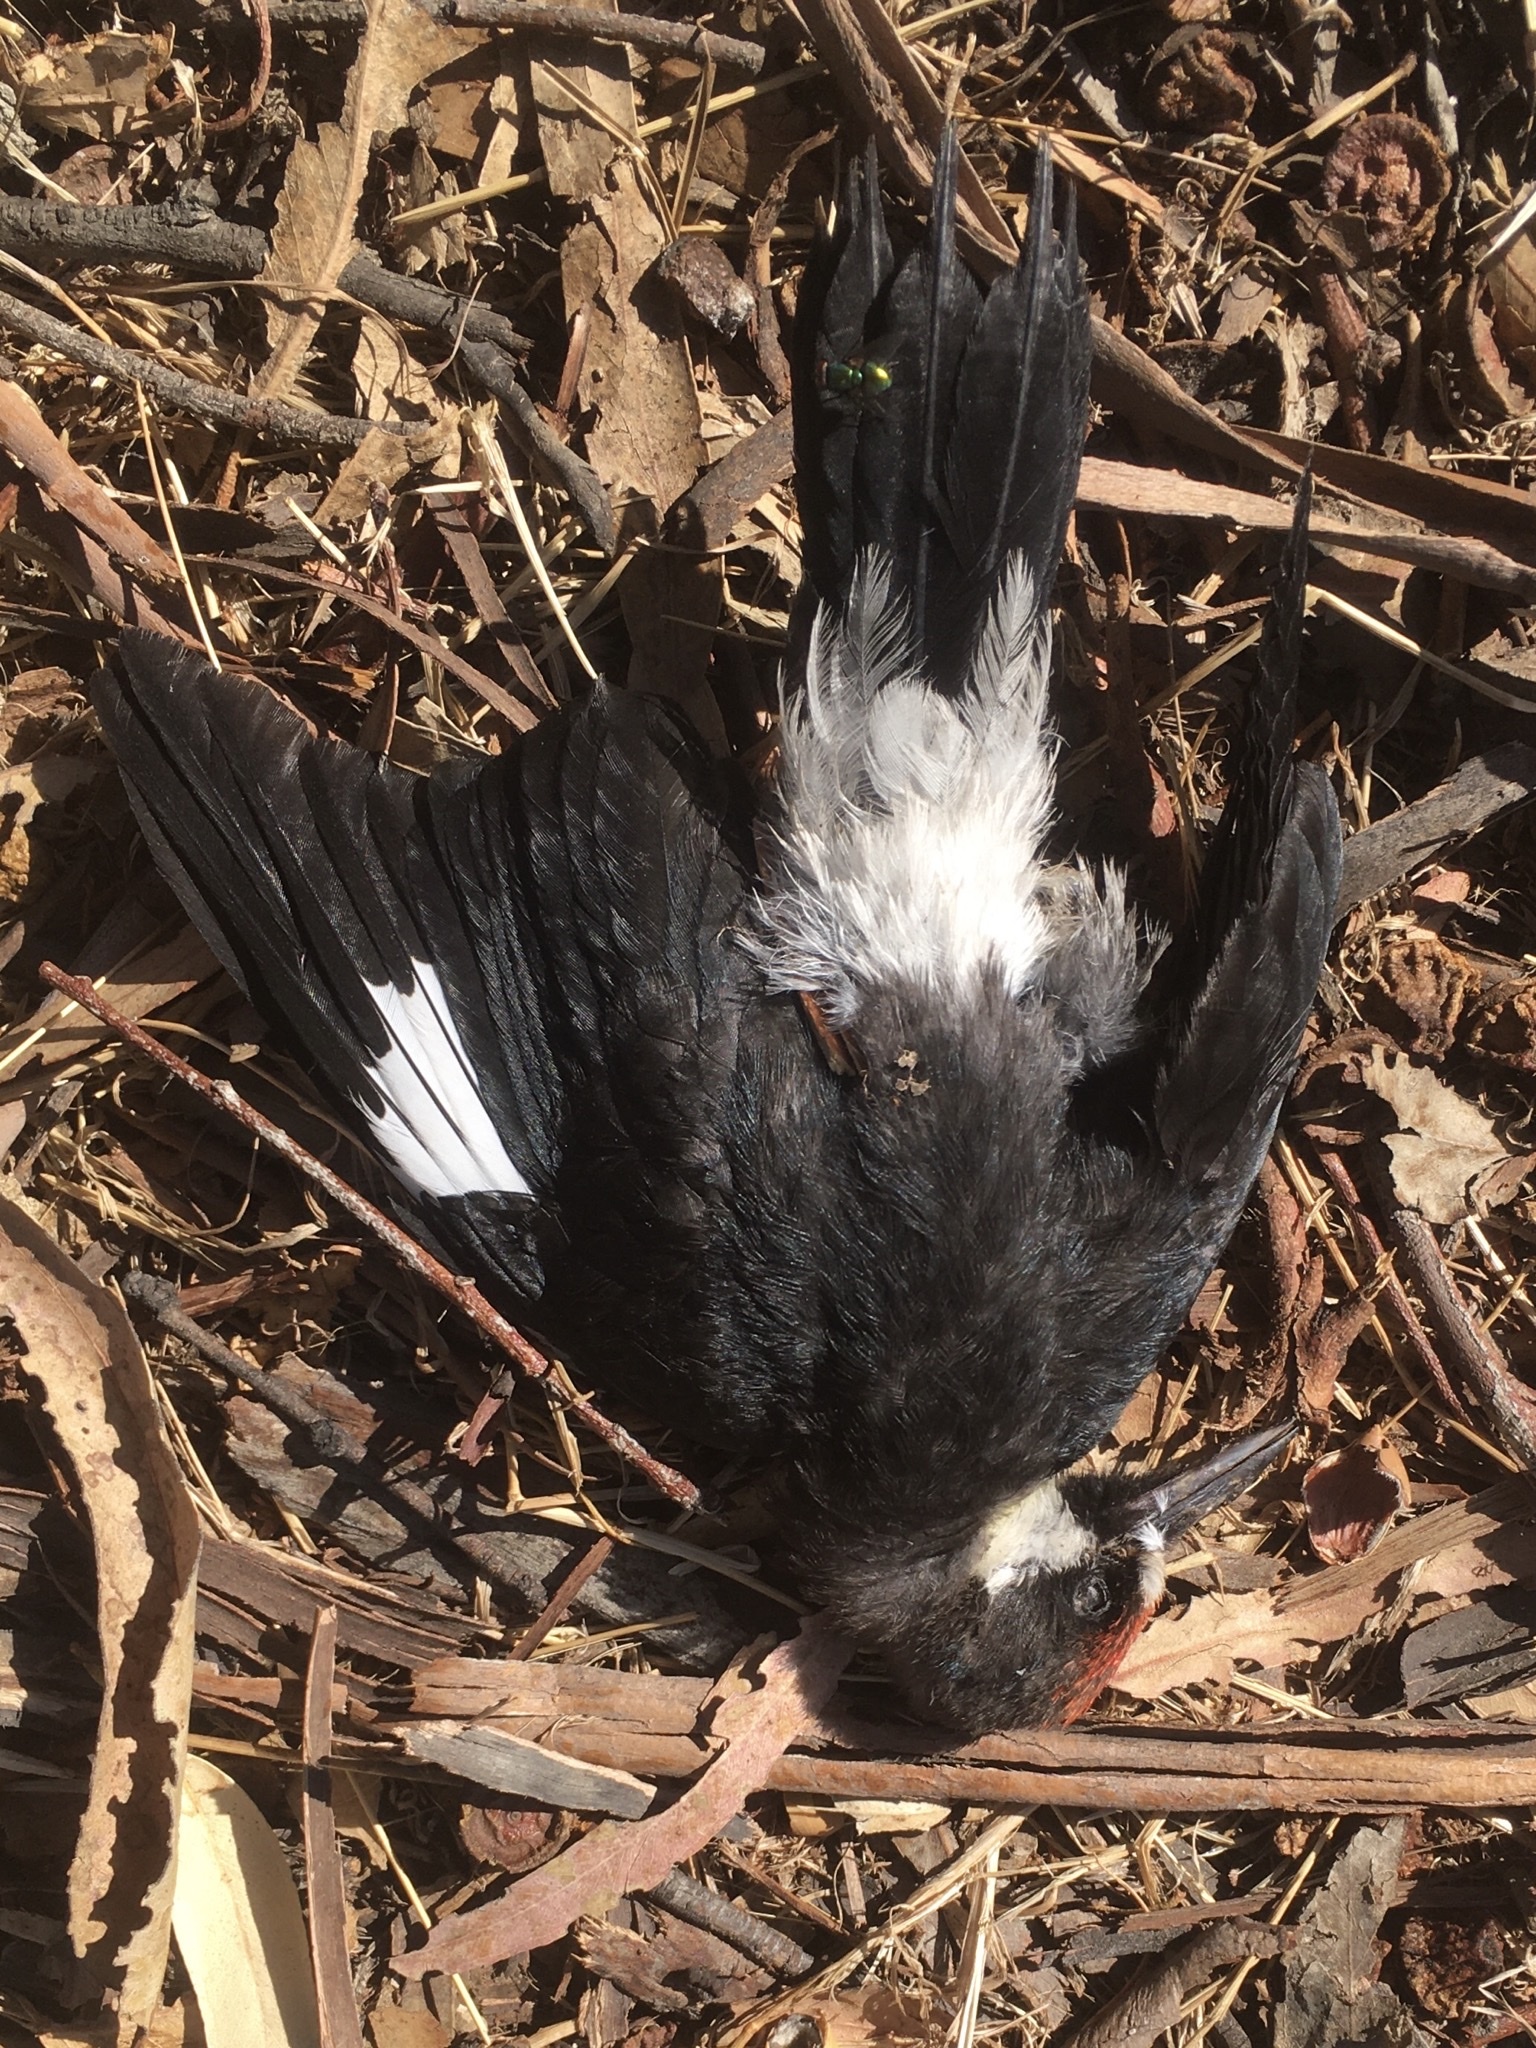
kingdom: Animalia
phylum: Chordata
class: Aves
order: Piciformes
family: Picidae
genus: Melanerpes
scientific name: Melanerpes formicivorus
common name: Acorn woodpecker
